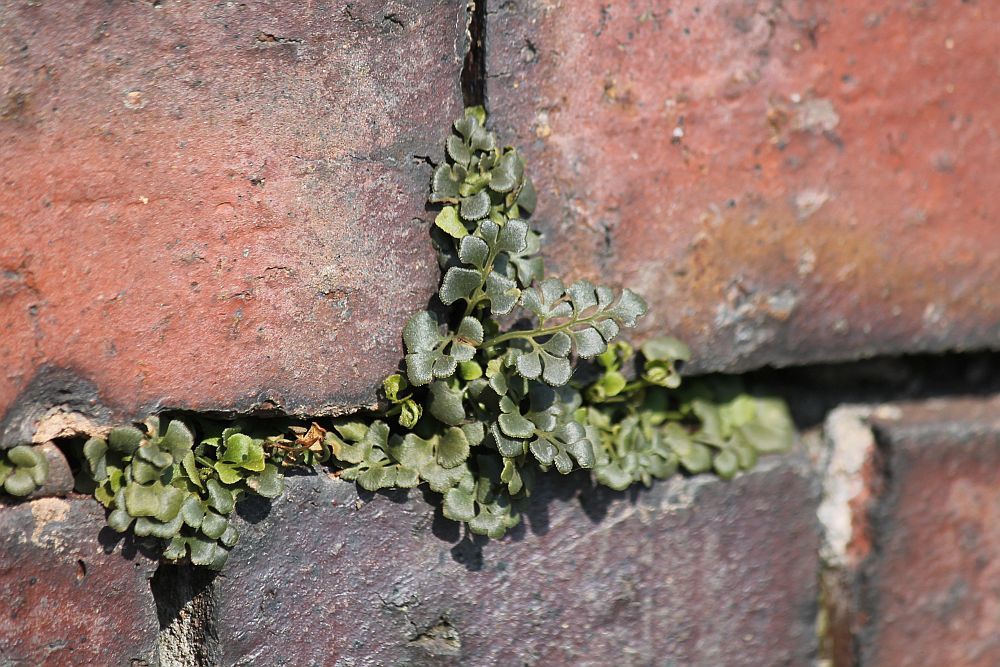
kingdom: Plantae
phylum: Tracheophyta
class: Polypodiopsida
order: Polypodiales
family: Aspleniaceae
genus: Asplenium
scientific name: Asplenium ruta-muraria
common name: Wall-rue
